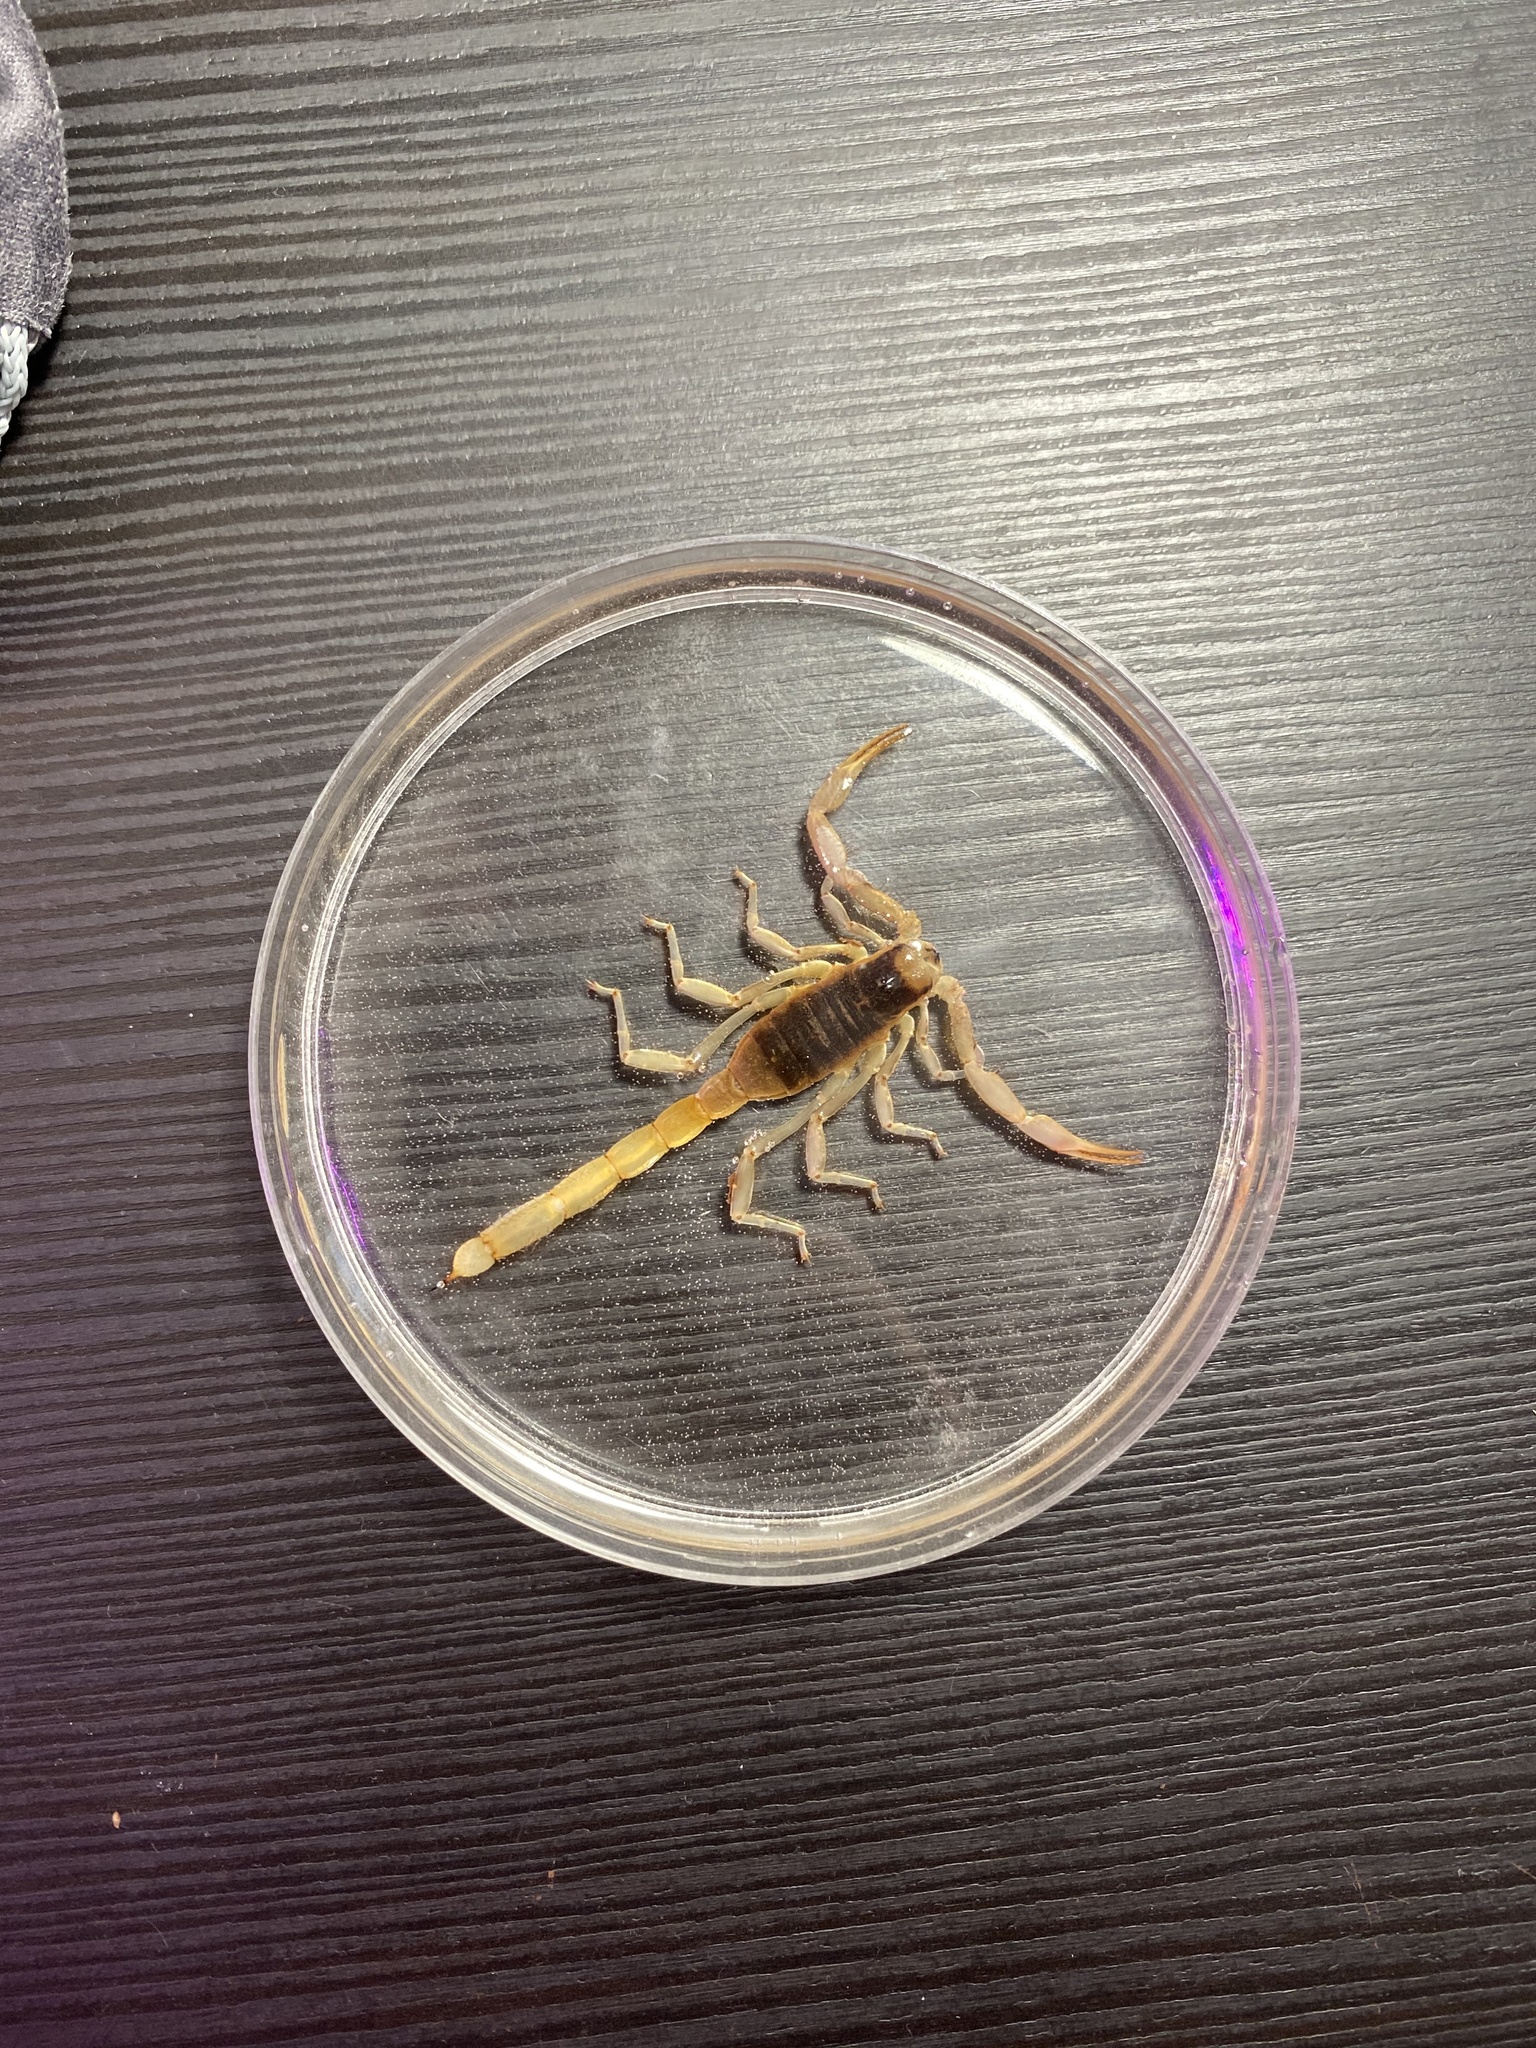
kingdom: Animalia
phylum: Arthropoda
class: Arachnida
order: Scorpiones
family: Hadruridae
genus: Hadrurus
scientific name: Hadrurus arizonensis
